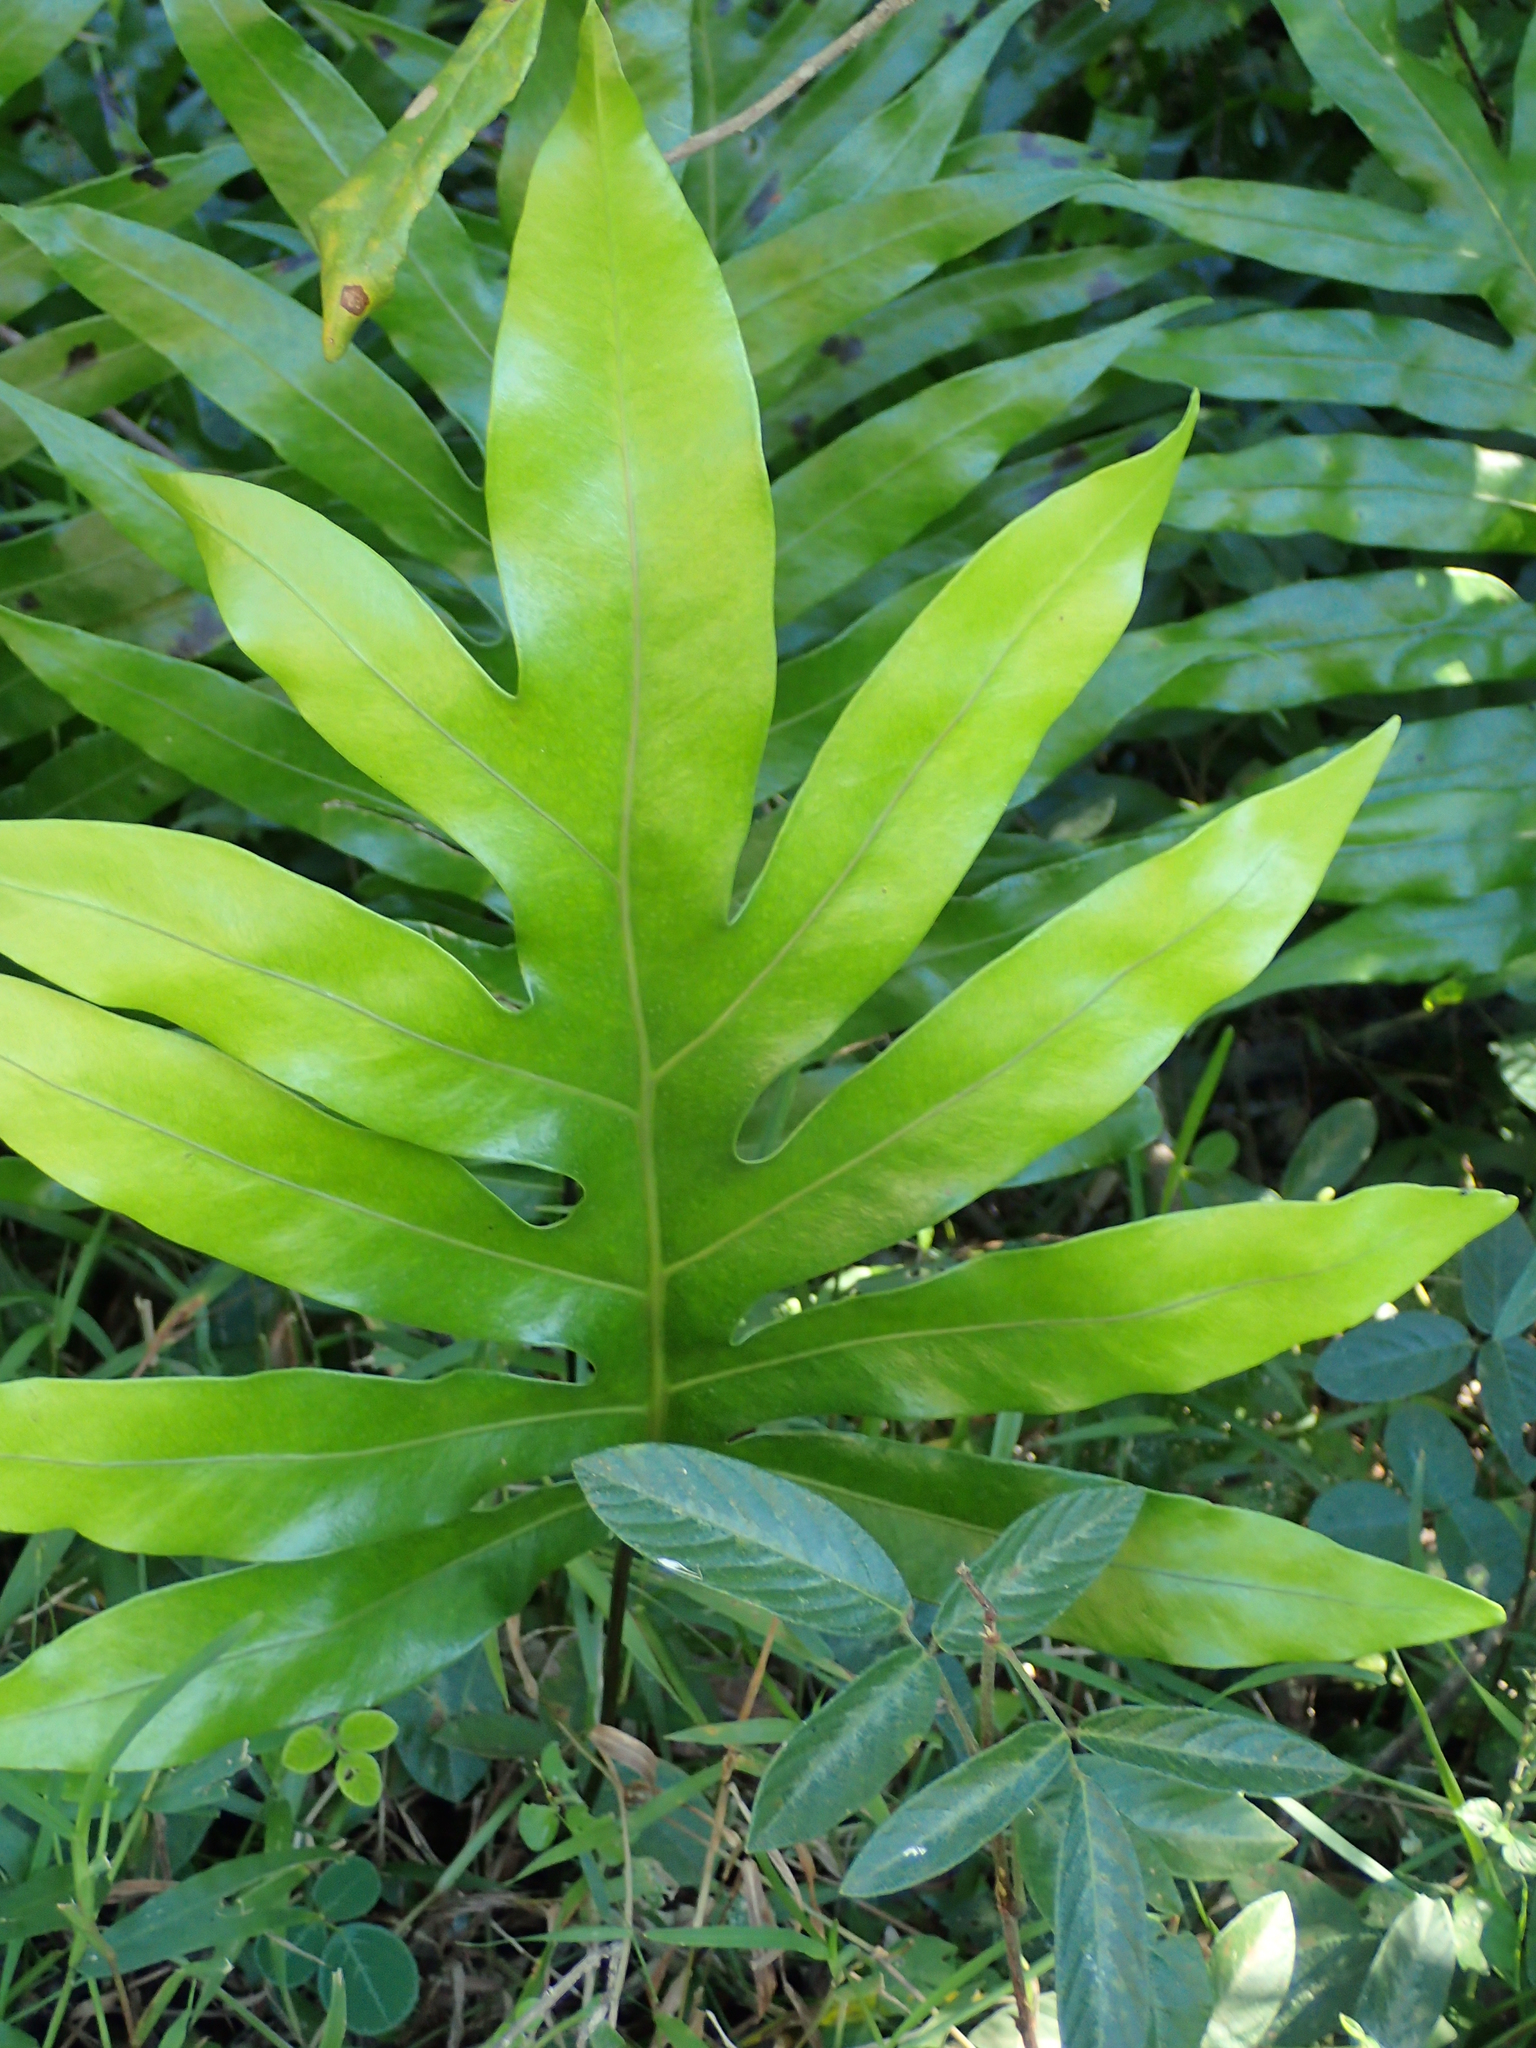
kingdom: Plantae
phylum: Tracheophyta
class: Polypodiopsida
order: Polypodiales
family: Polypodiaceae
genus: Microsorum
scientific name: Microsorum scolopendria
